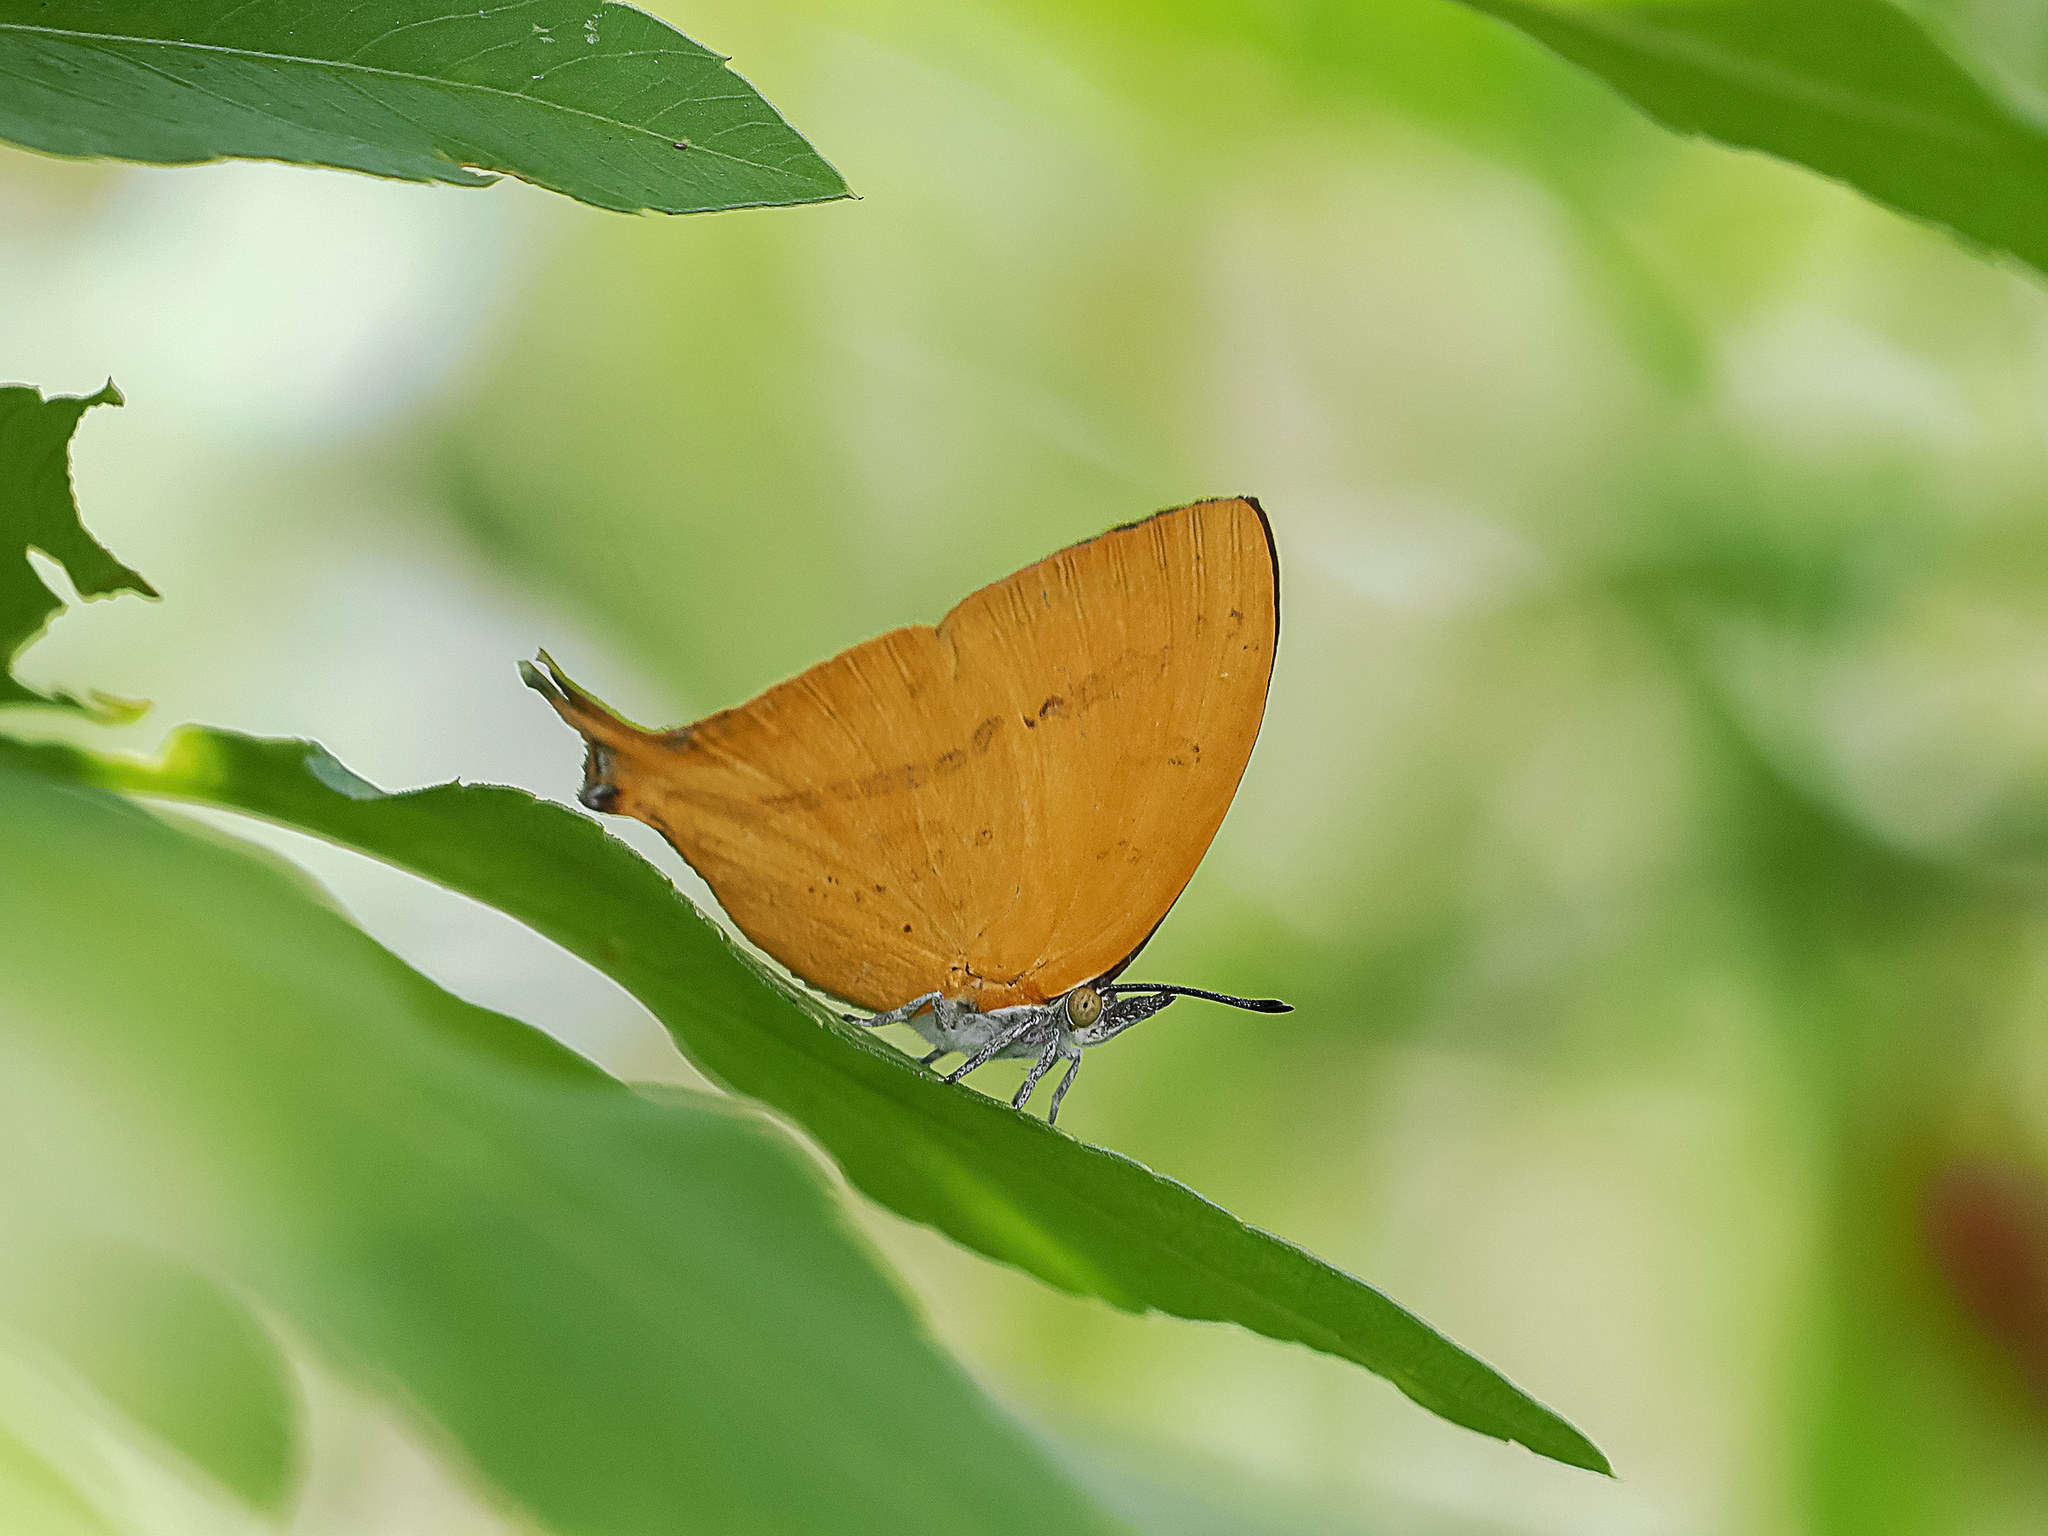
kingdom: Animalia
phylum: Arthropoda
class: Insecta
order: Lepidoptera
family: Lycaenidae
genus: Loxura
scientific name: Loxura atymnus
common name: Common yamfly
